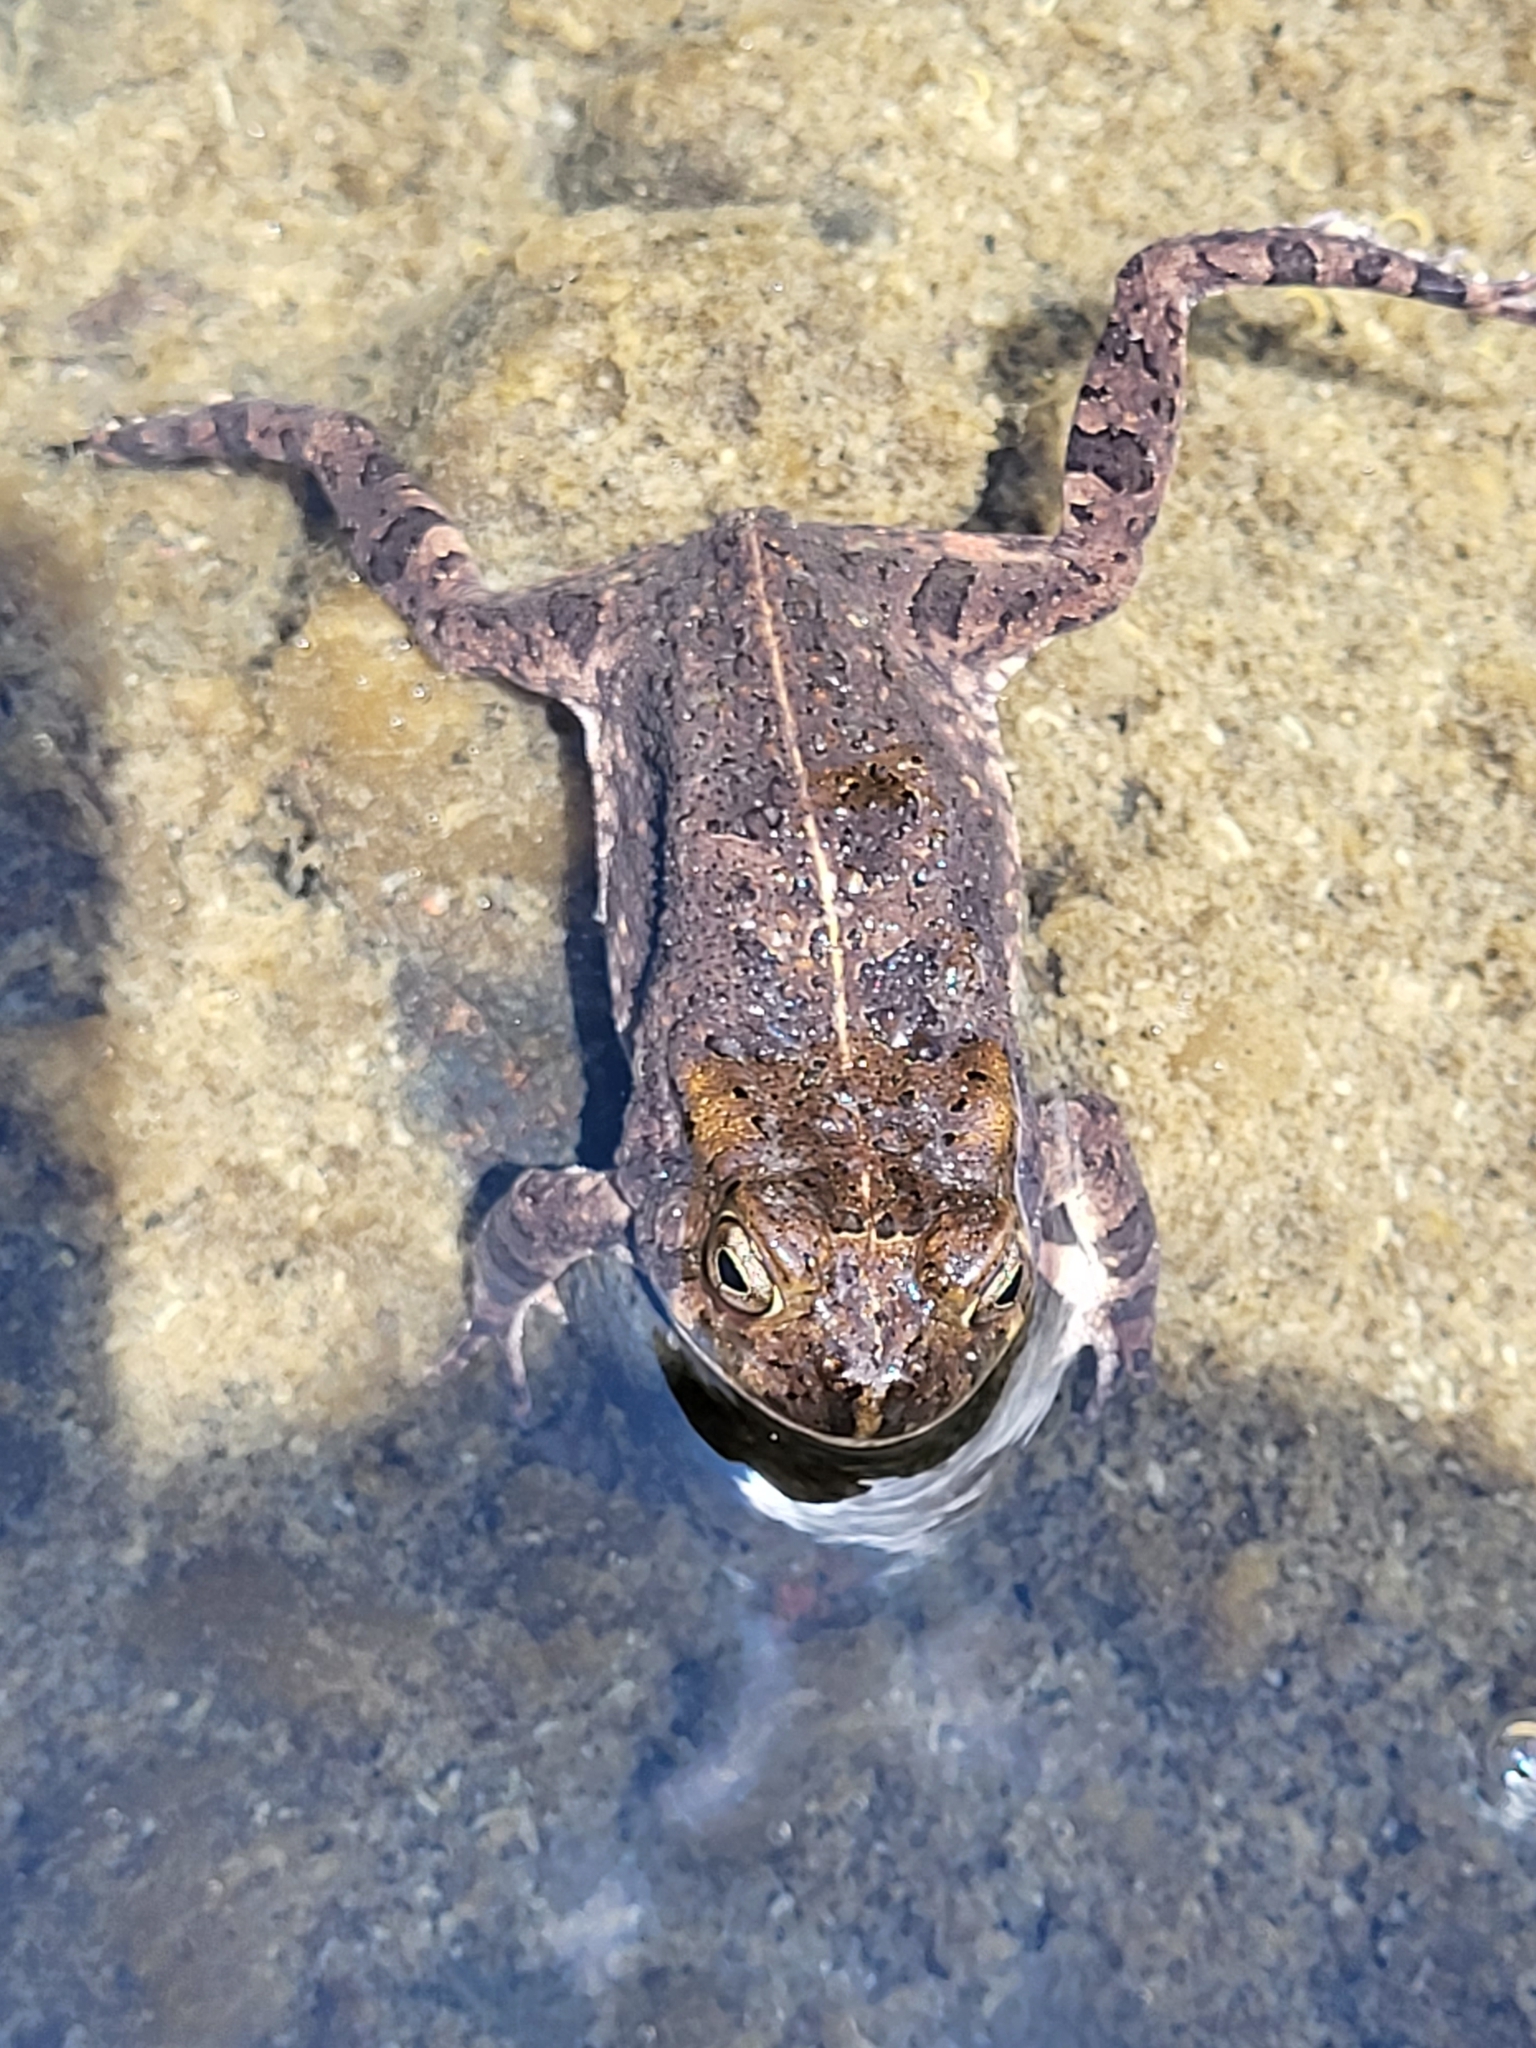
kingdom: Animalia
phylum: Chordata
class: Amphibia
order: Anura
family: Bufonidae
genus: Sclerophrys
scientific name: Sclerophrys gutturalis
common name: African common toad
